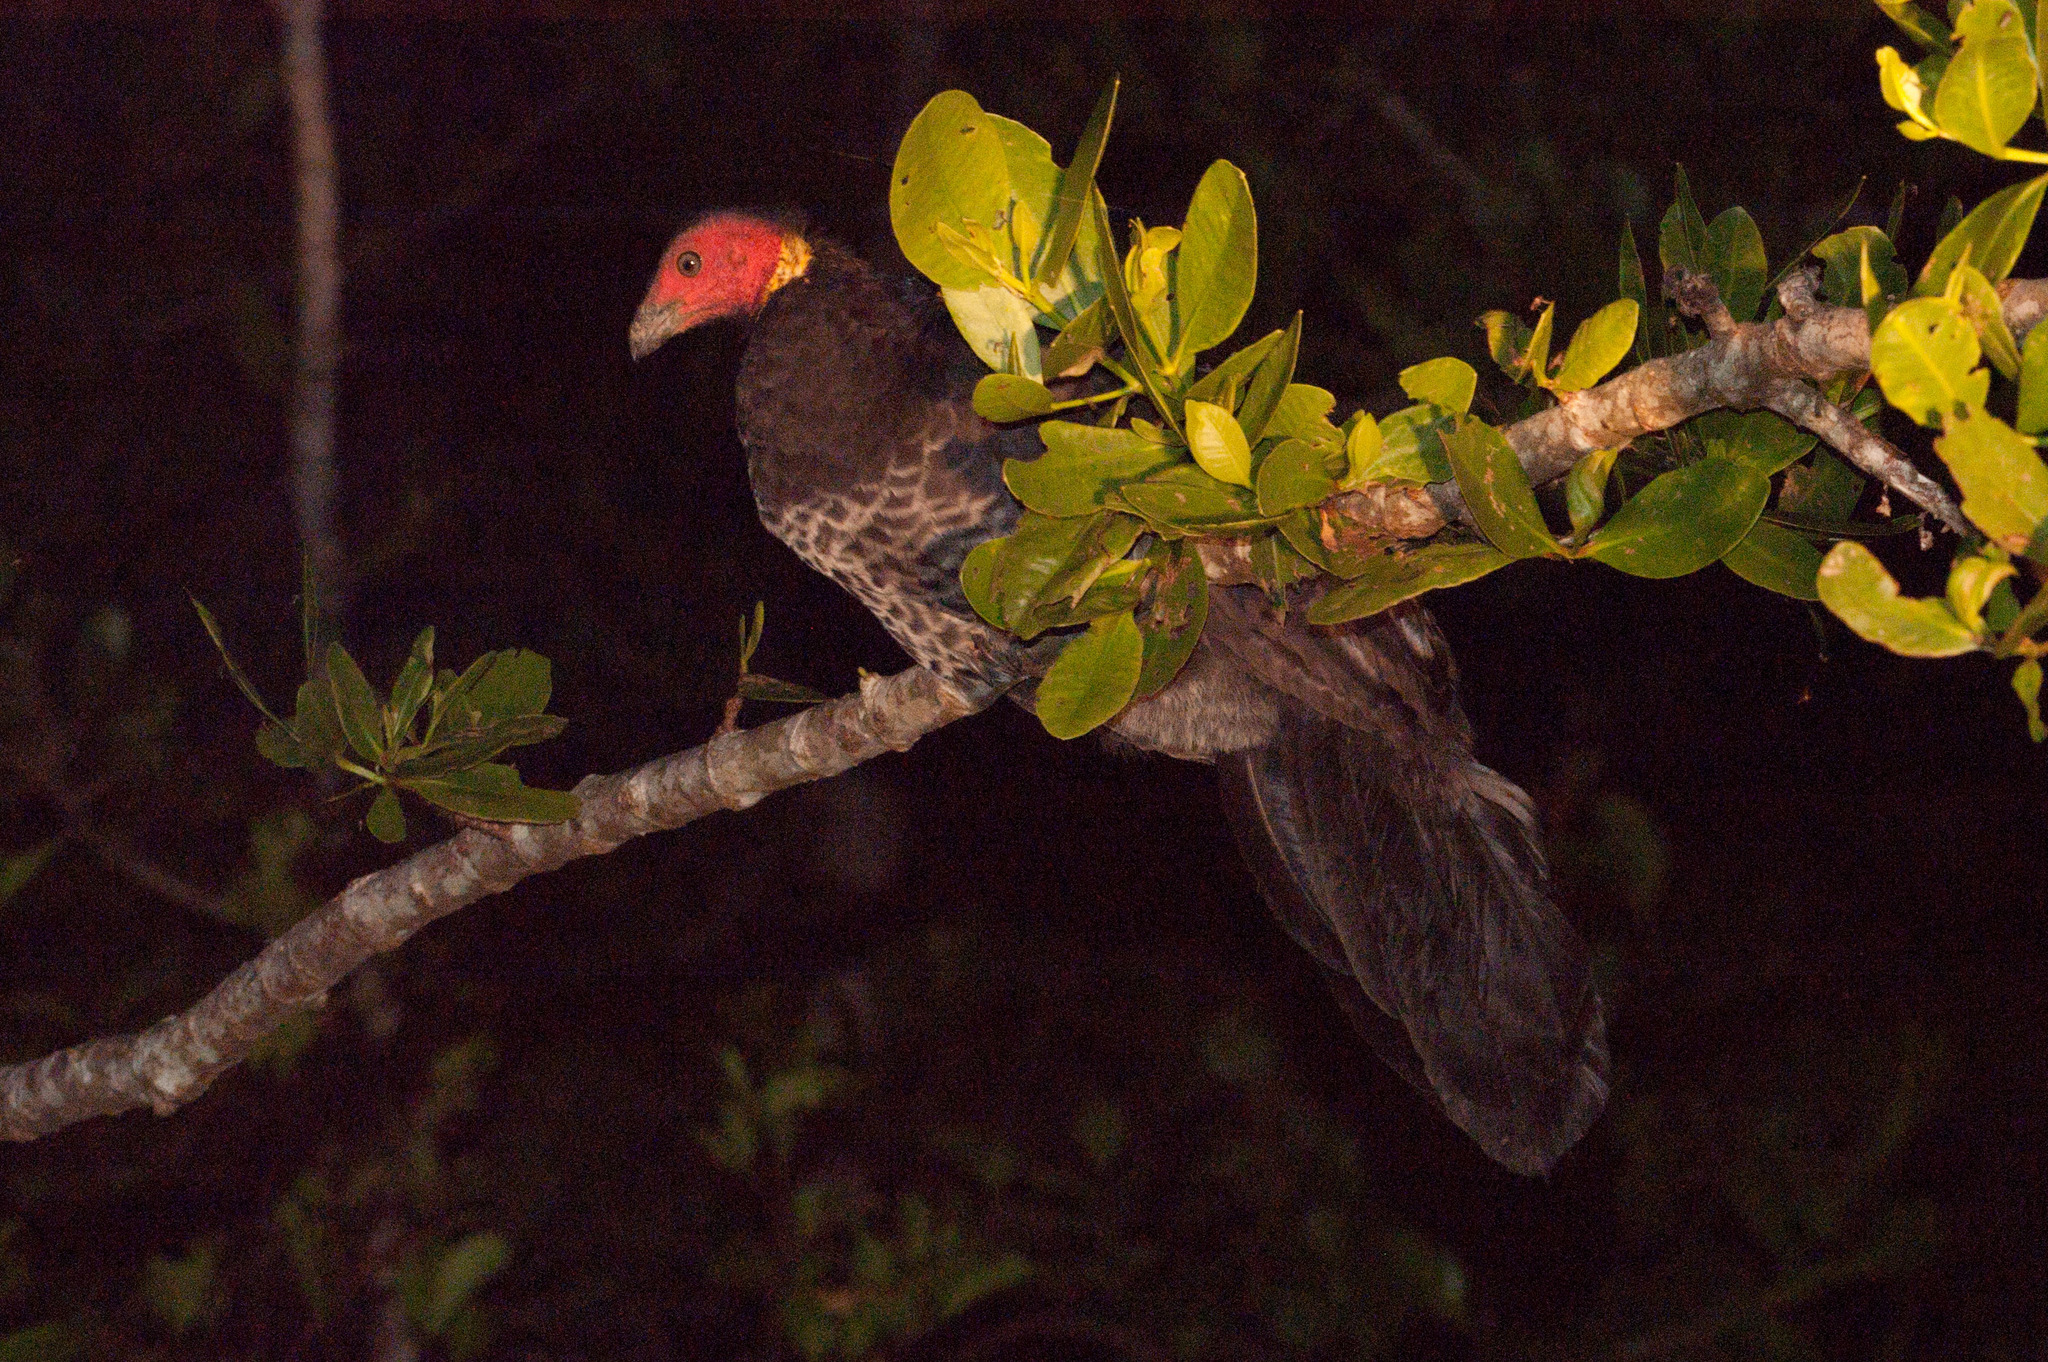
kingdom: Animalia
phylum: Chordata
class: Aves
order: Galliformes
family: Megapodiidae
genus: Alectura
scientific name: Alectura lathami
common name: Australian brushturkey
